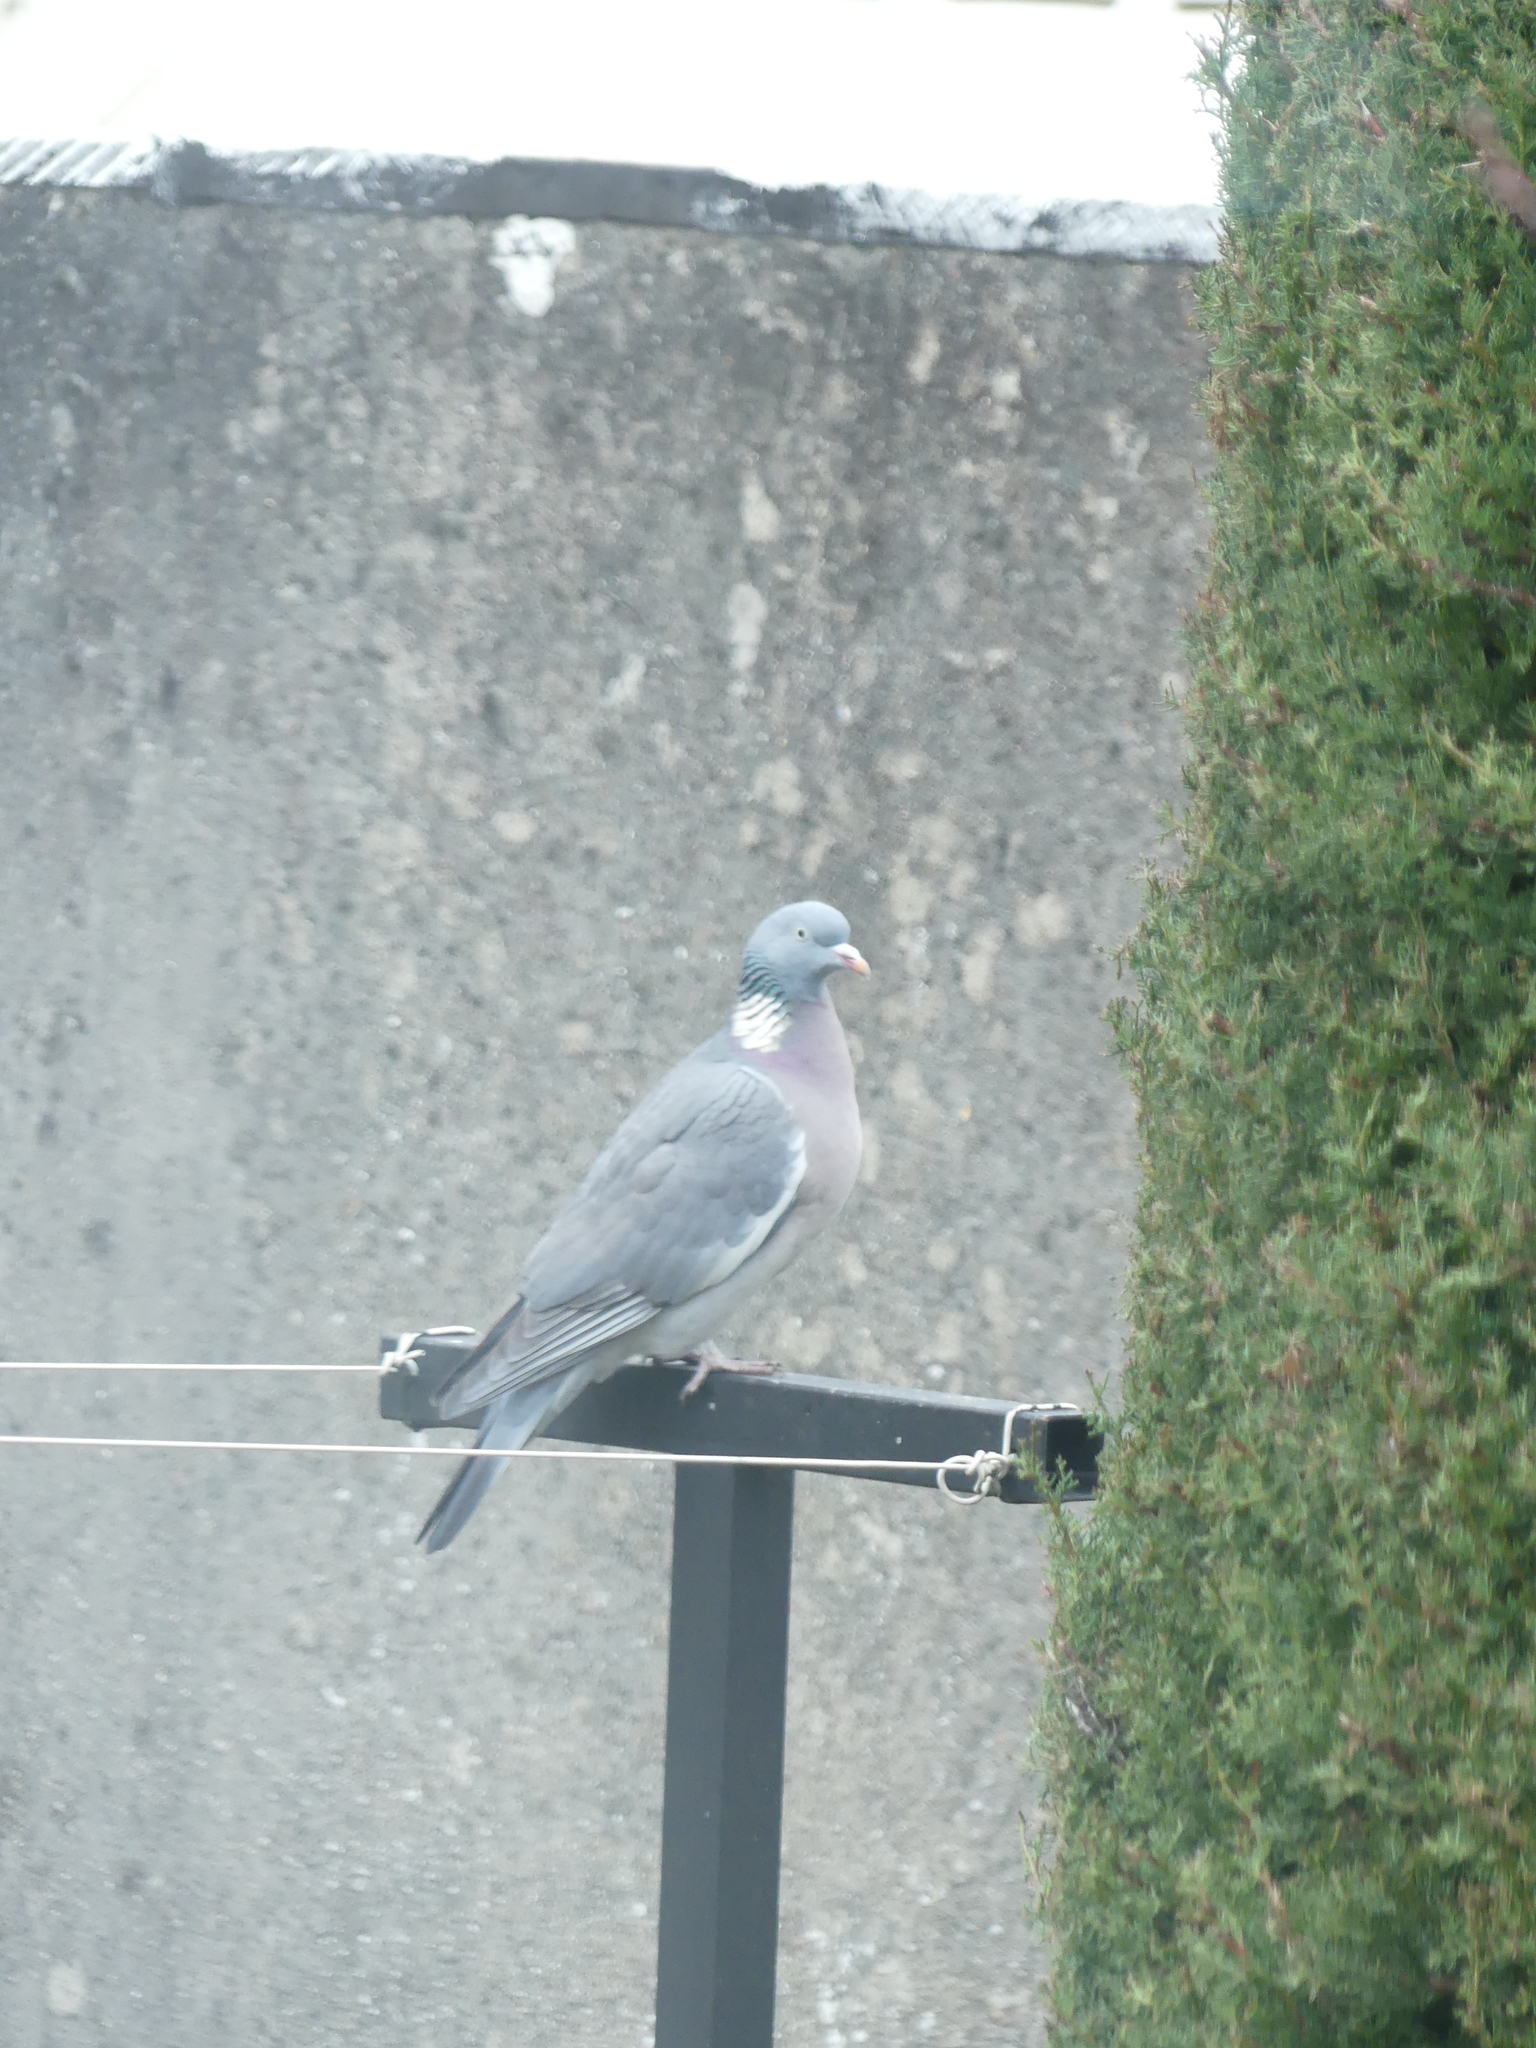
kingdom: Animalia
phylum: Chordata
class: Aves
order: Columbiformes
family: Columbidae
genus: Columba
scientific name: Columba palumbus
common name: Common wood pigeon
